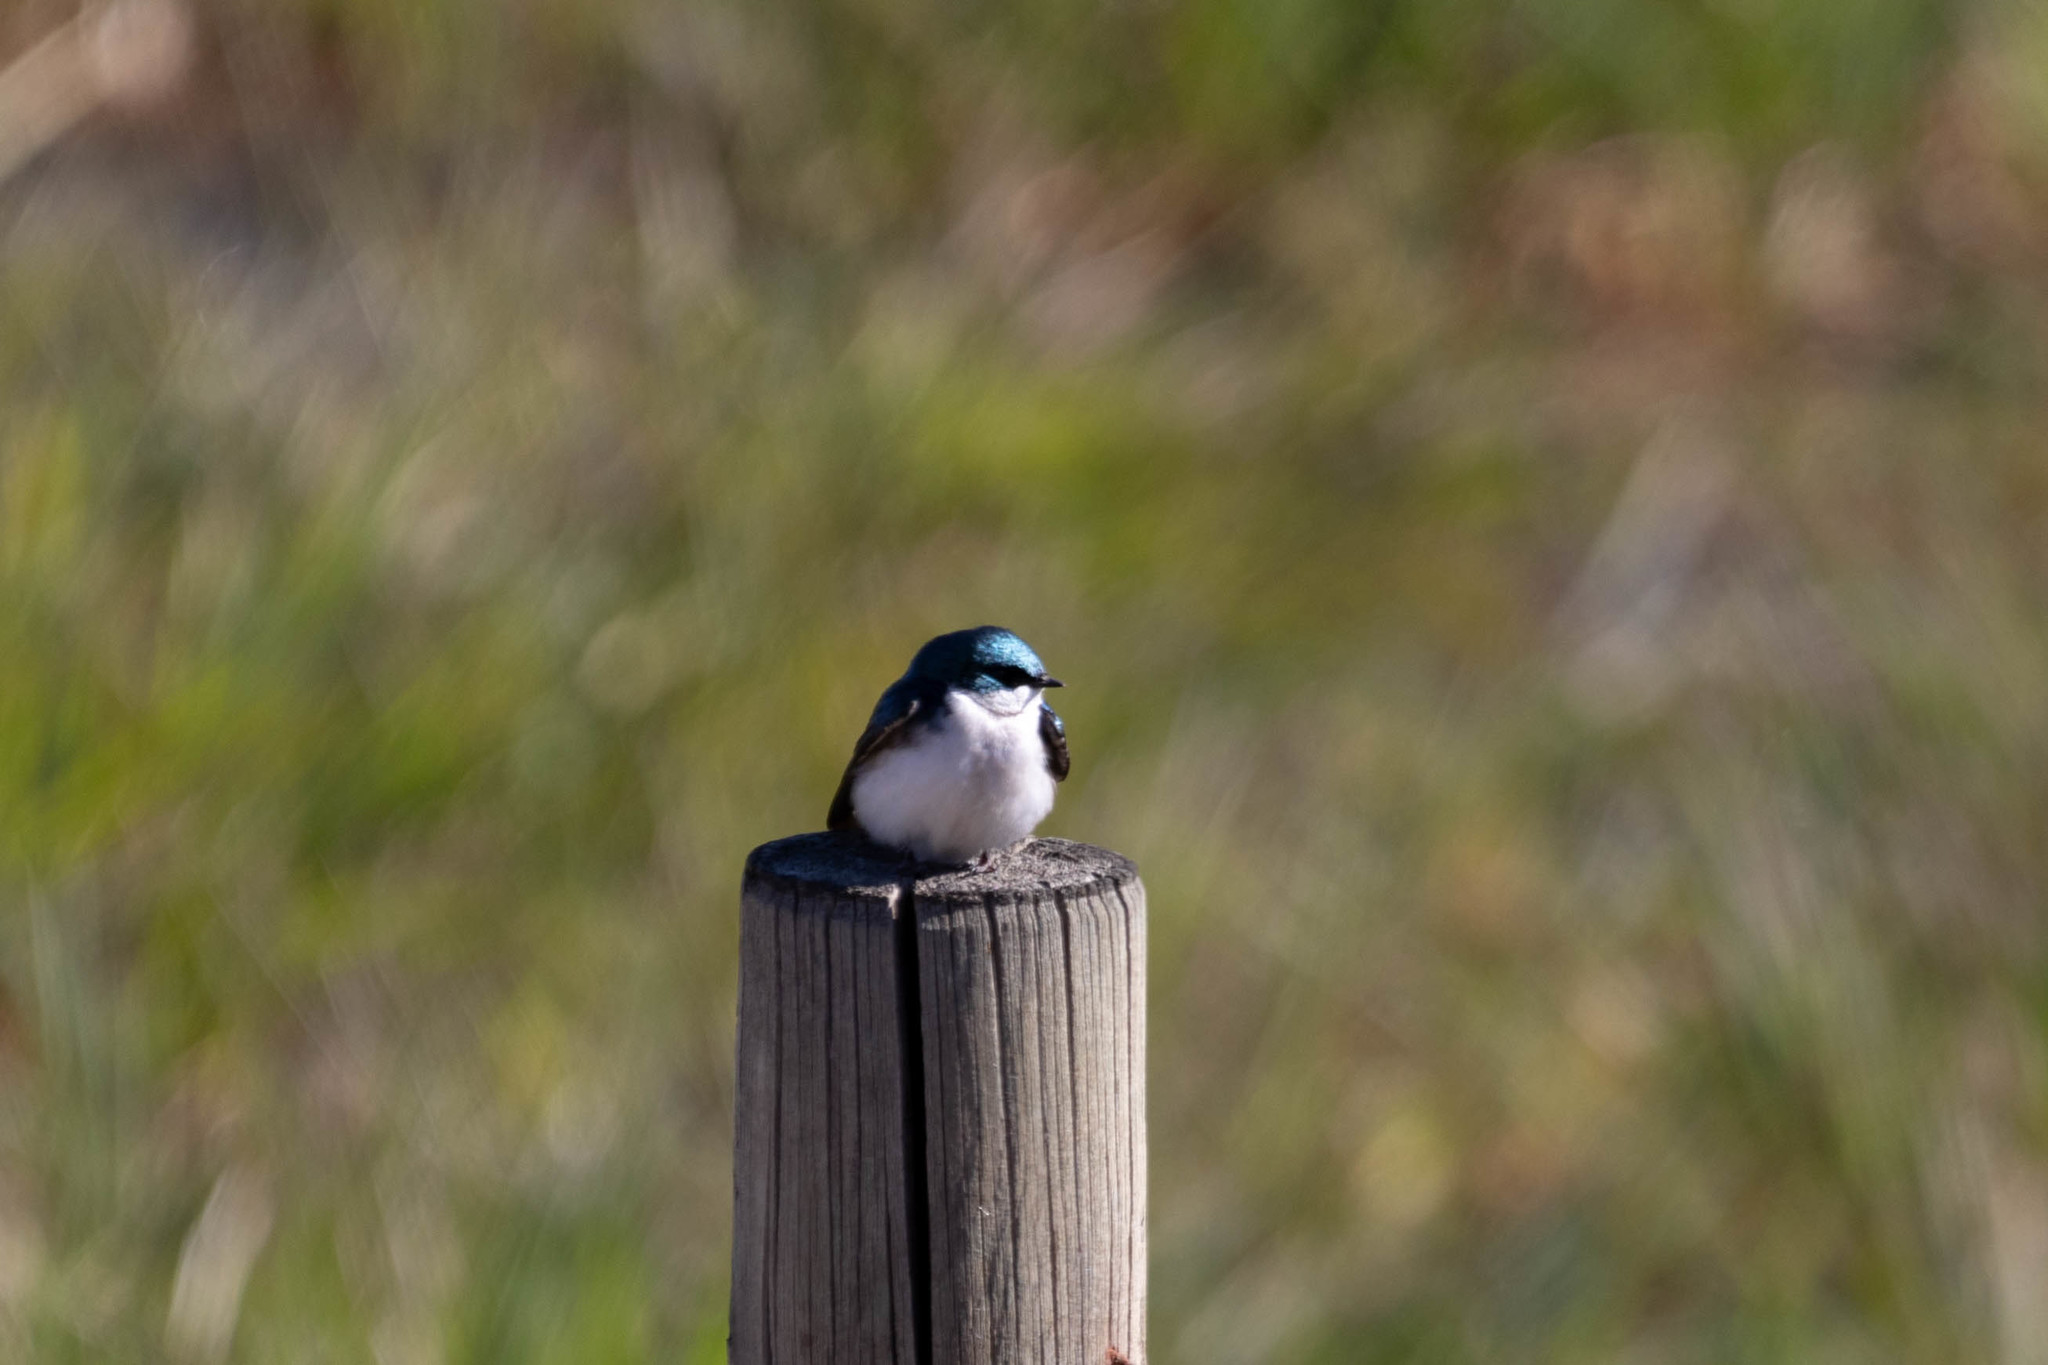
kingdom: Animalia
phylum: Chordata
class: Aves
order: Passeriformes
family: Hirundinidae
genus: Tachycineta
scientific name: Tachycineta bicolor
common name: Tree swallow
